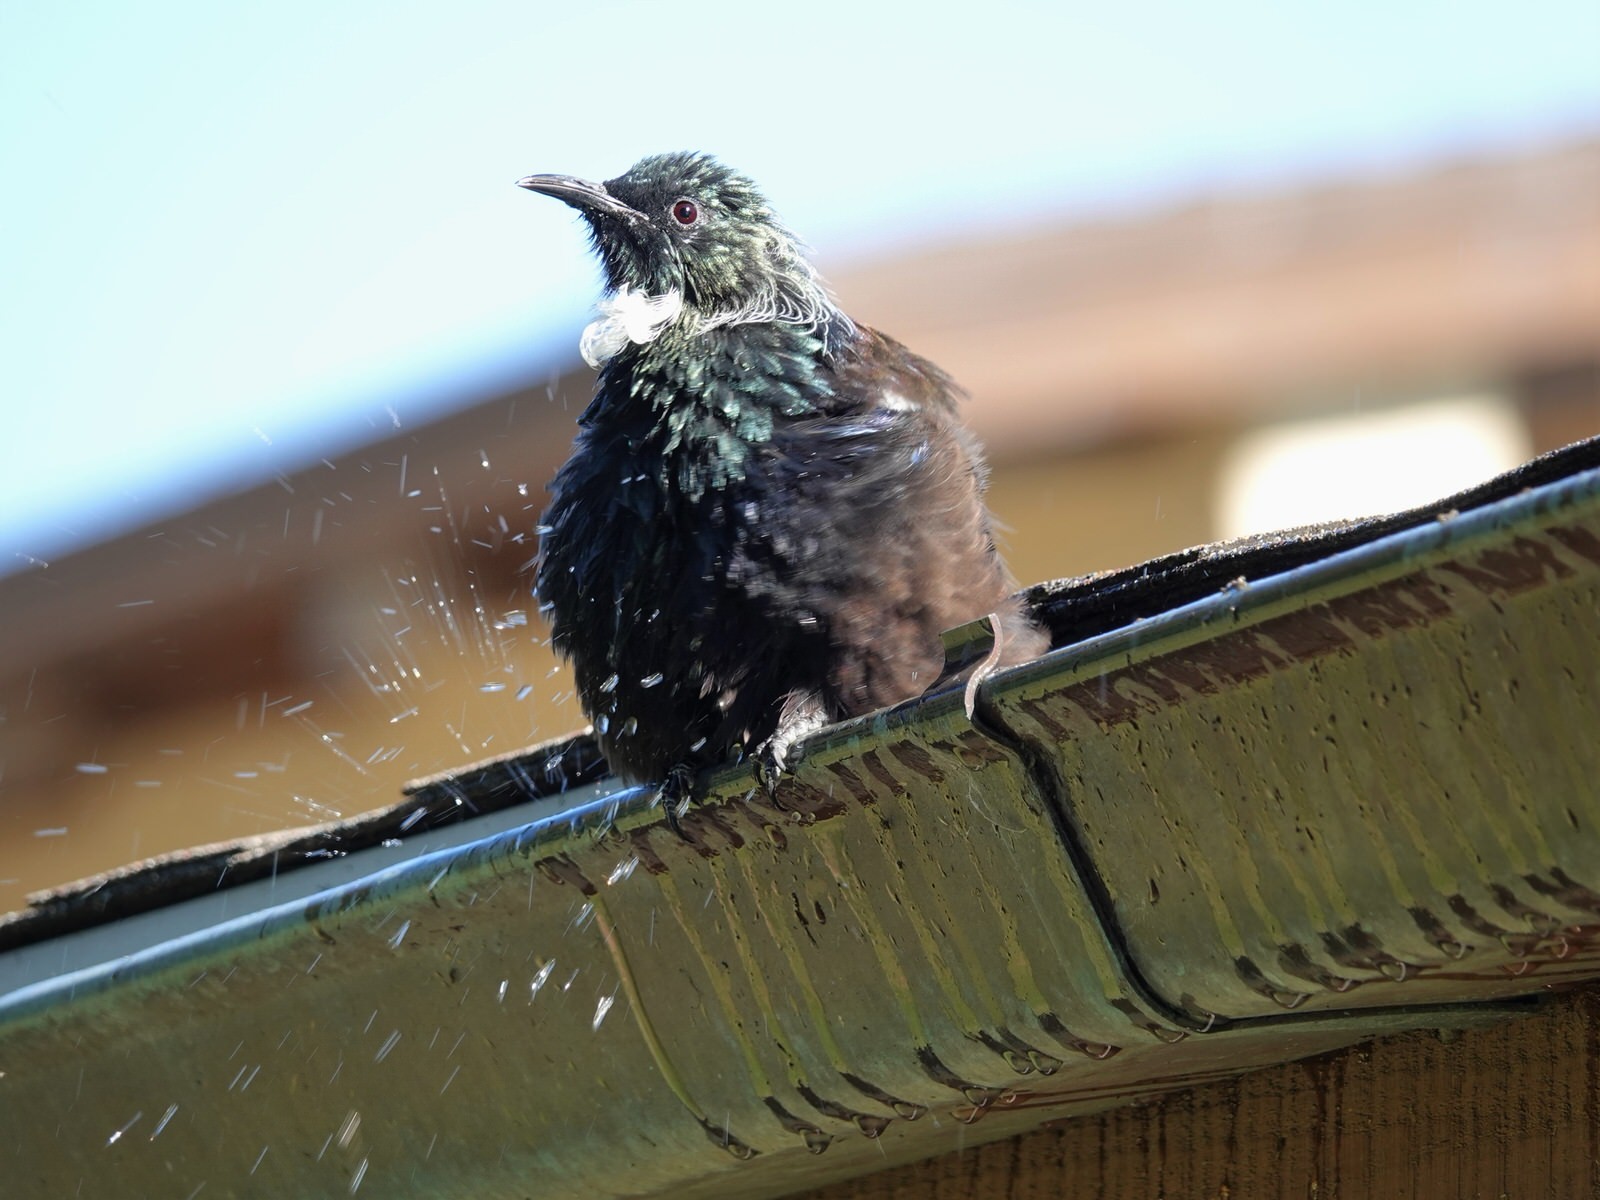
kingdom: Animalia
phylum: Chordata
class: Aves
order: Passeriformes
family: Meliphagidae
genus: Prosthemadera
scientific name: Prosthemadera novaeseelandiae
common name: Tui
